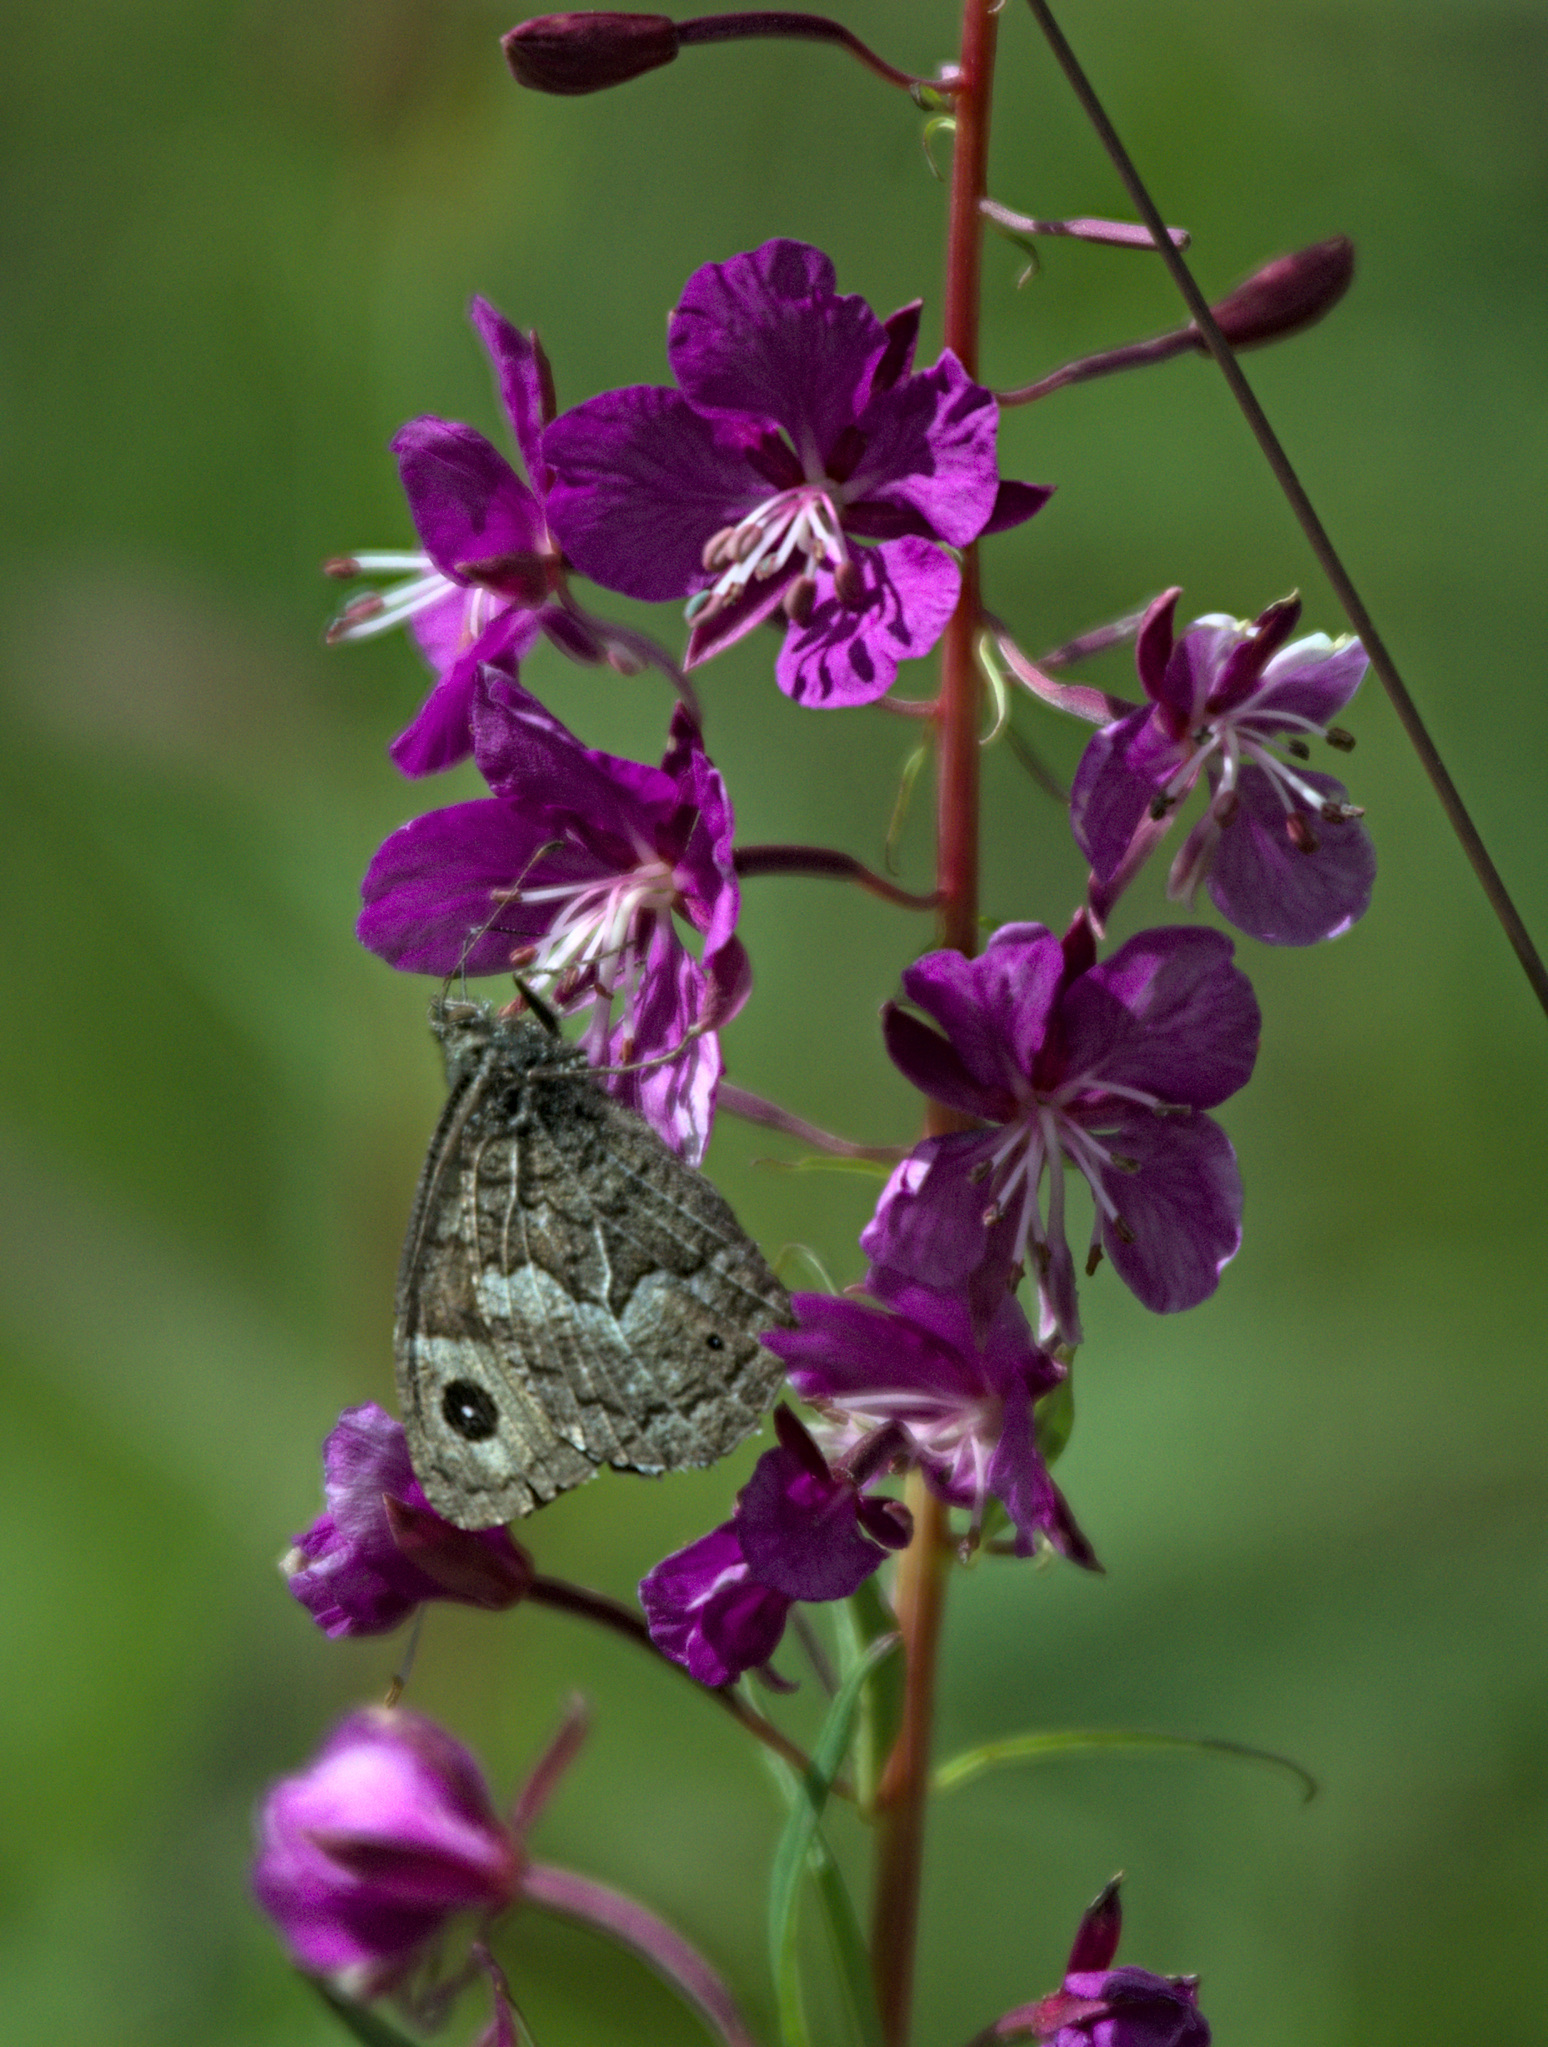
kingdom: Animalia
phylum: Arthropoda
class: Insecta
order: Lepidoptera
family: Nymphalidae
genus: Hipparchia
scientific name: Hipparchia autonoe
